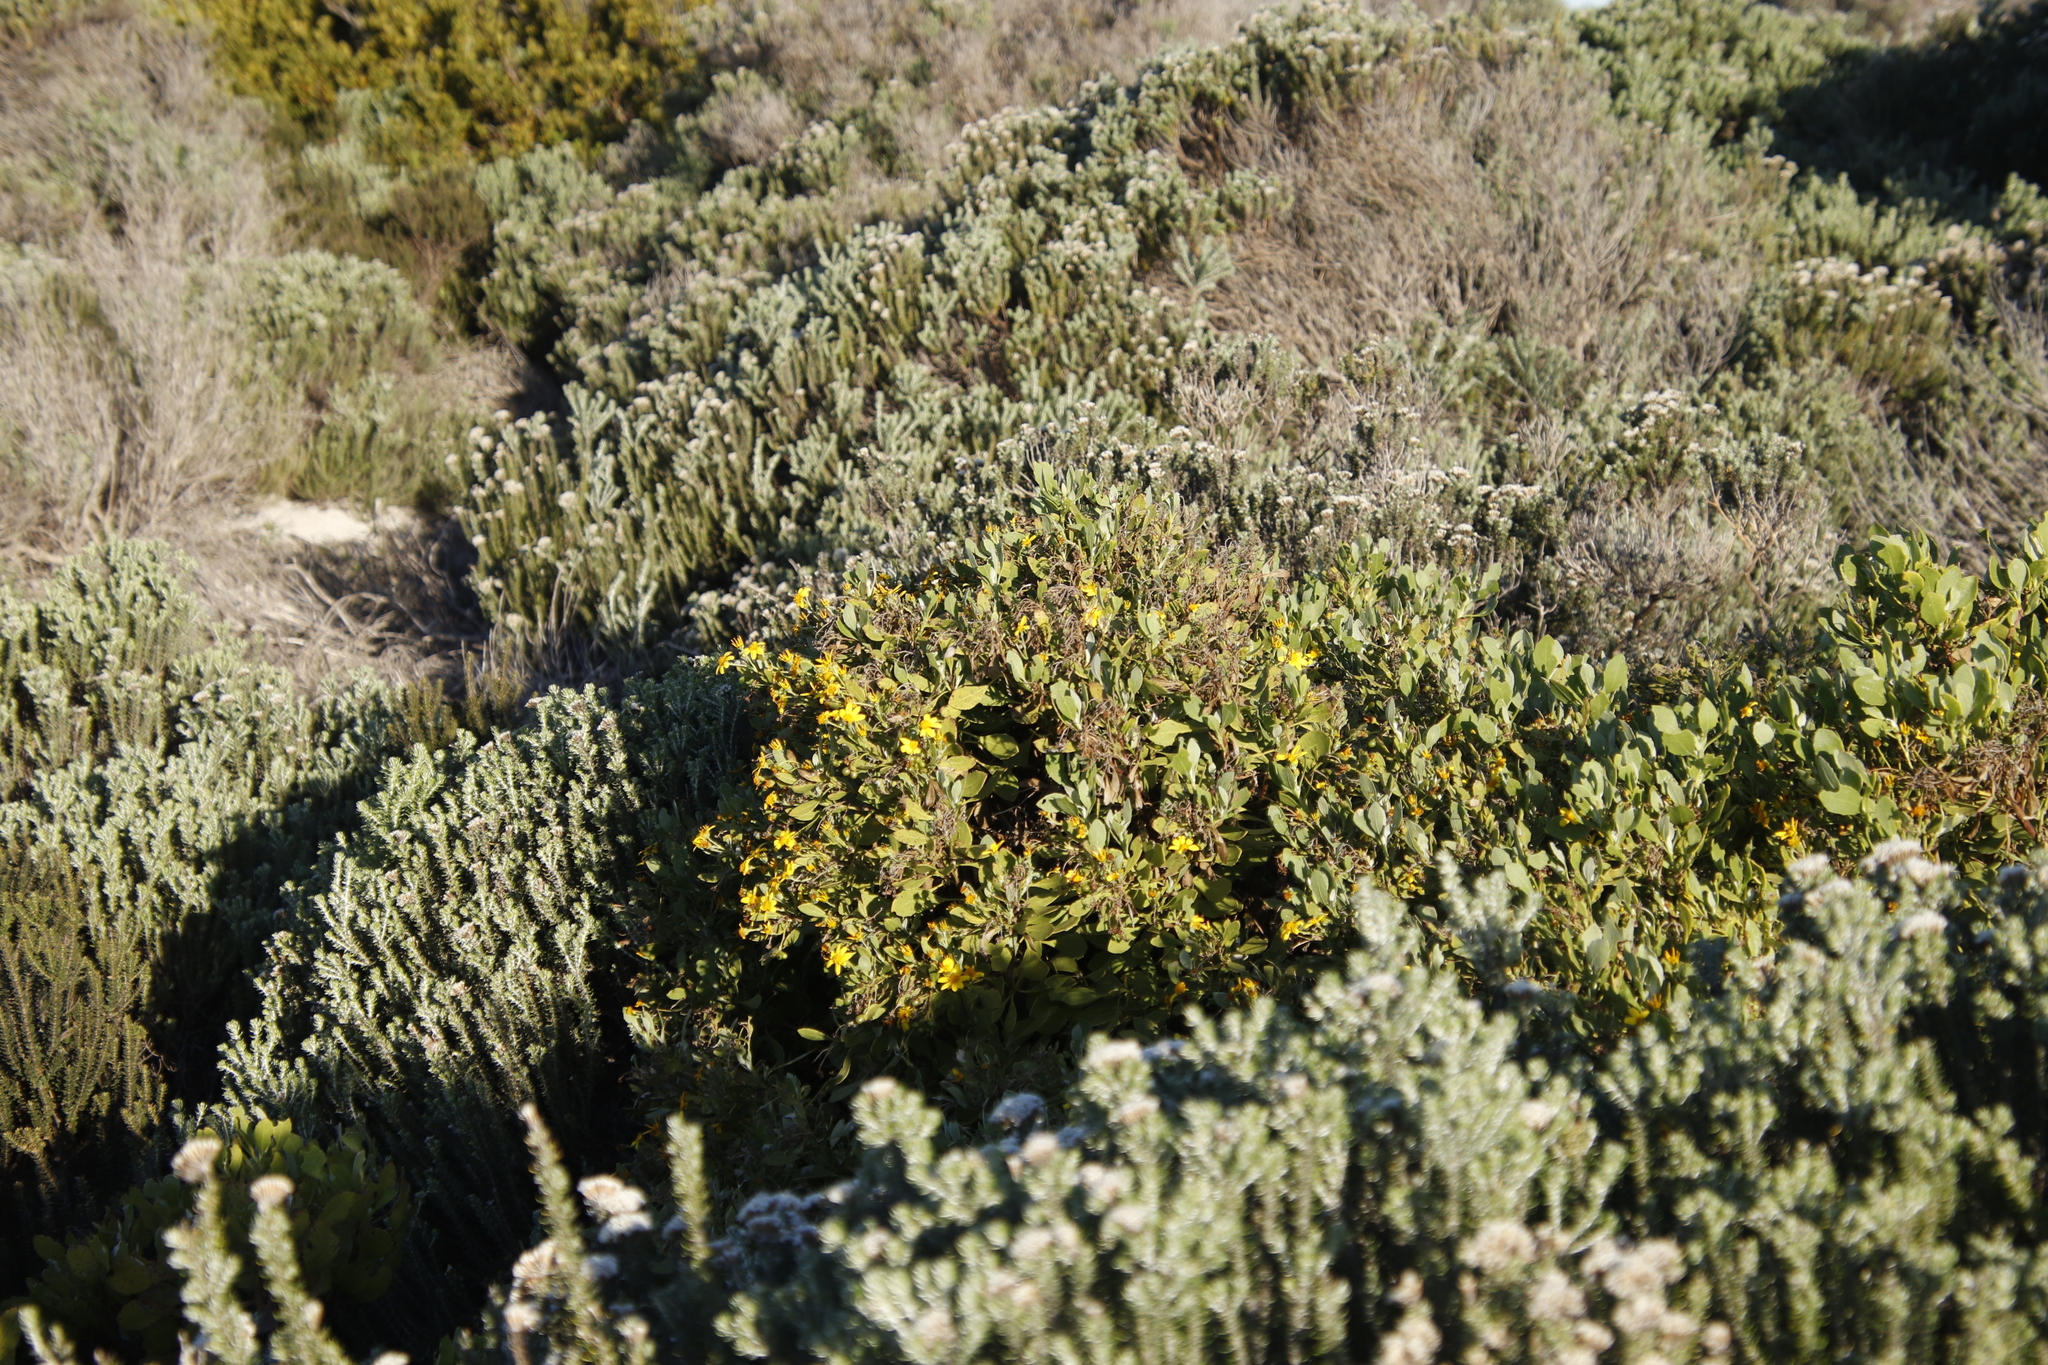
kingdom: Plantae
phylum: Tracheophyta
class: Magnoliopsida
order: Asterales
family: Asteraceae
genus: Osteospermum
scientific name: Osteospermum moniliferum
